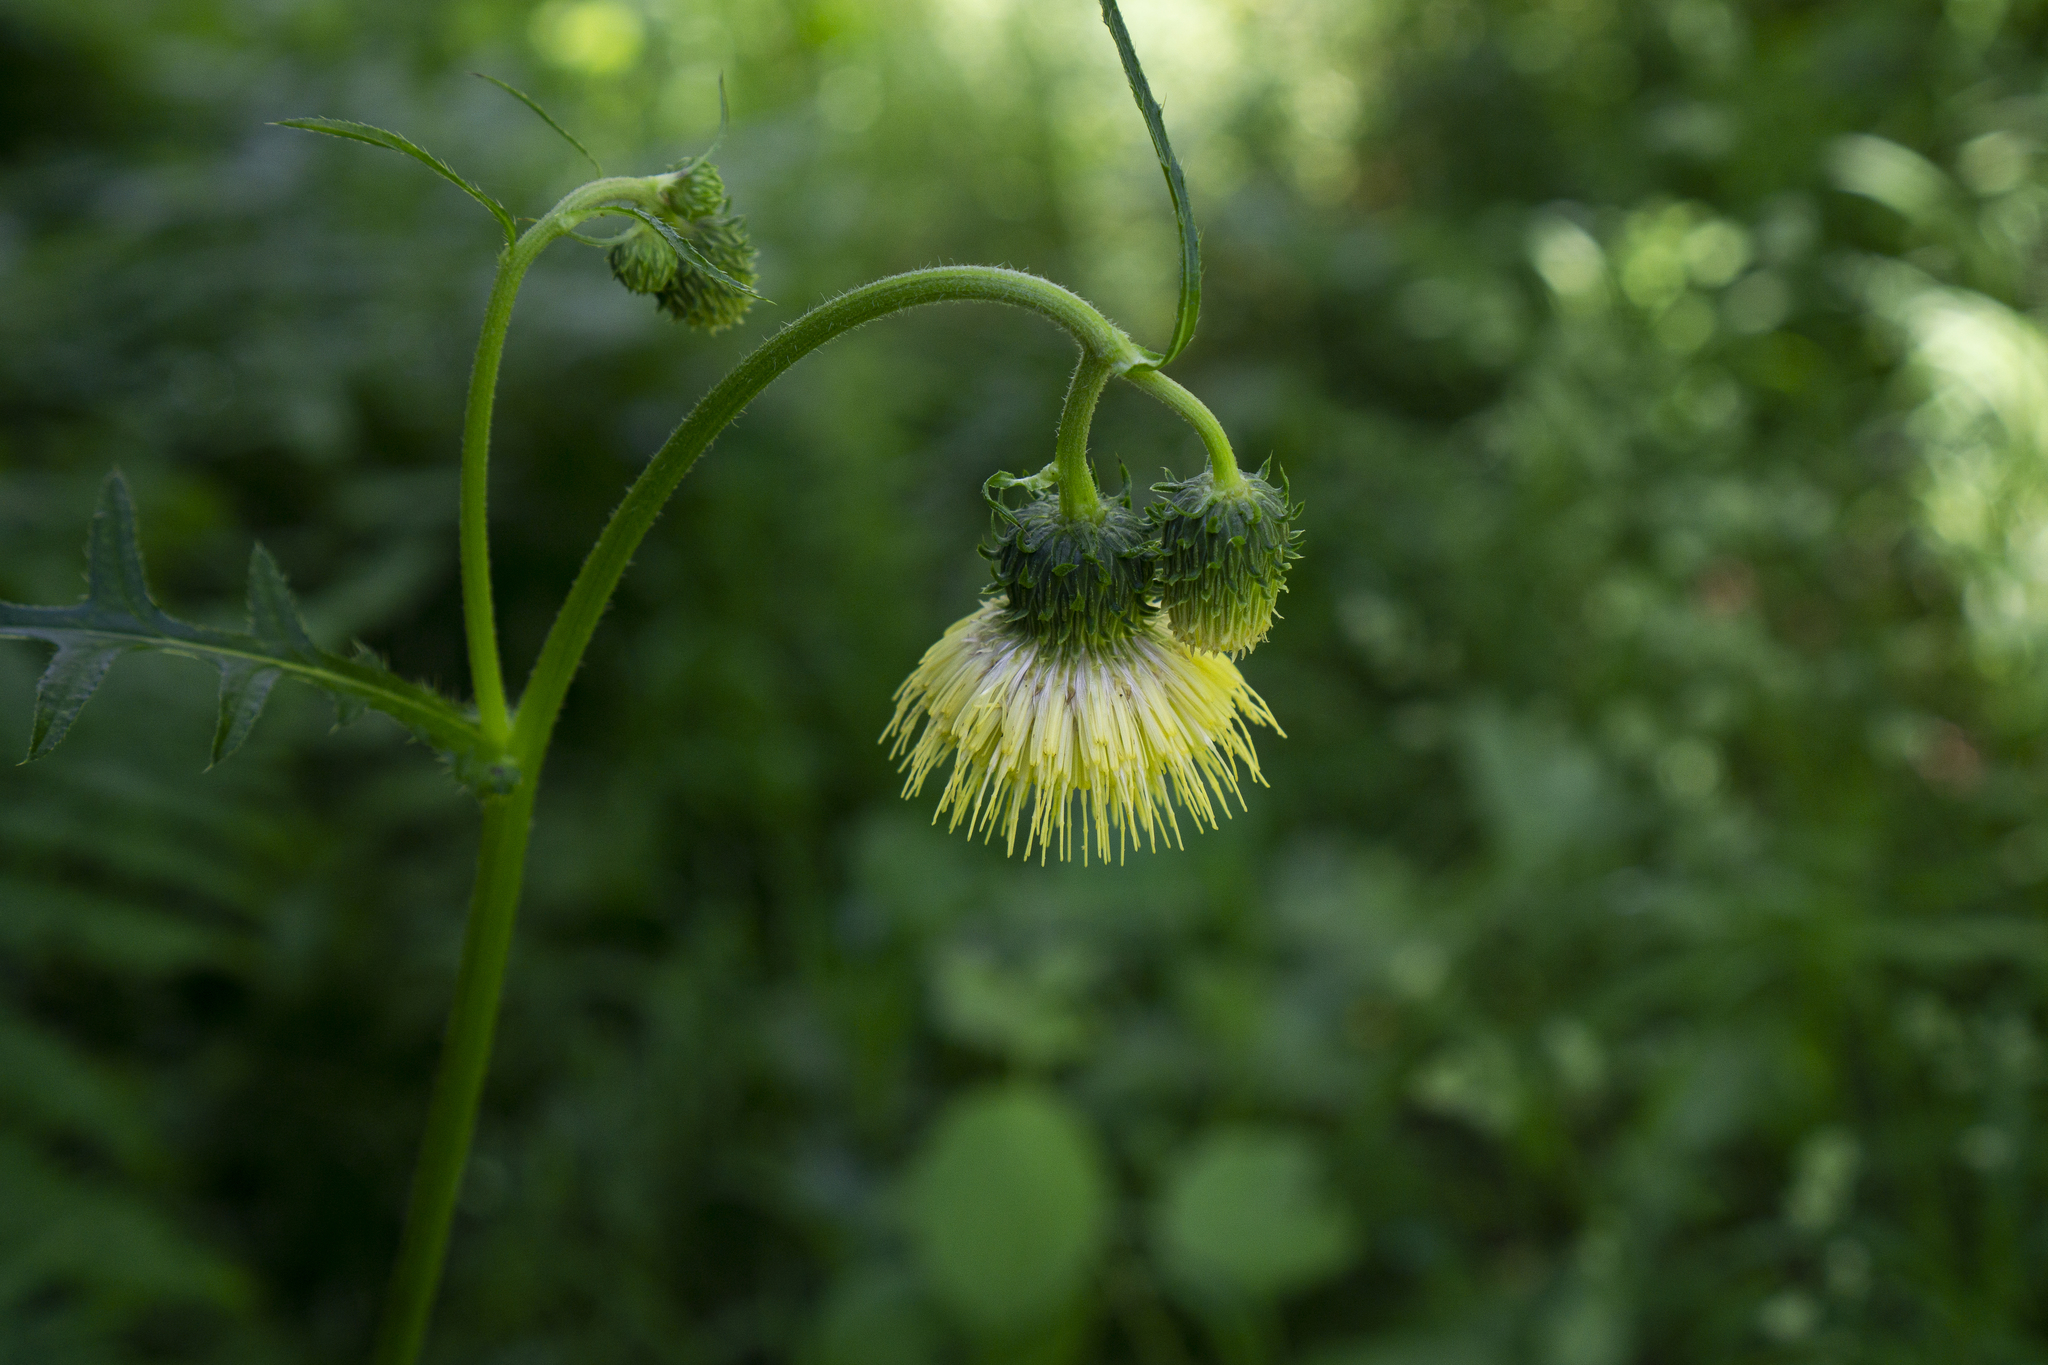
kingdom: Plantae
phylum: Tracheophyta
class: Magnoliopsida
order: Asterales
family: Asteraceae
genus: Cirsium
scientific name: Cirsium erisithales
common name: Yellow thistle
